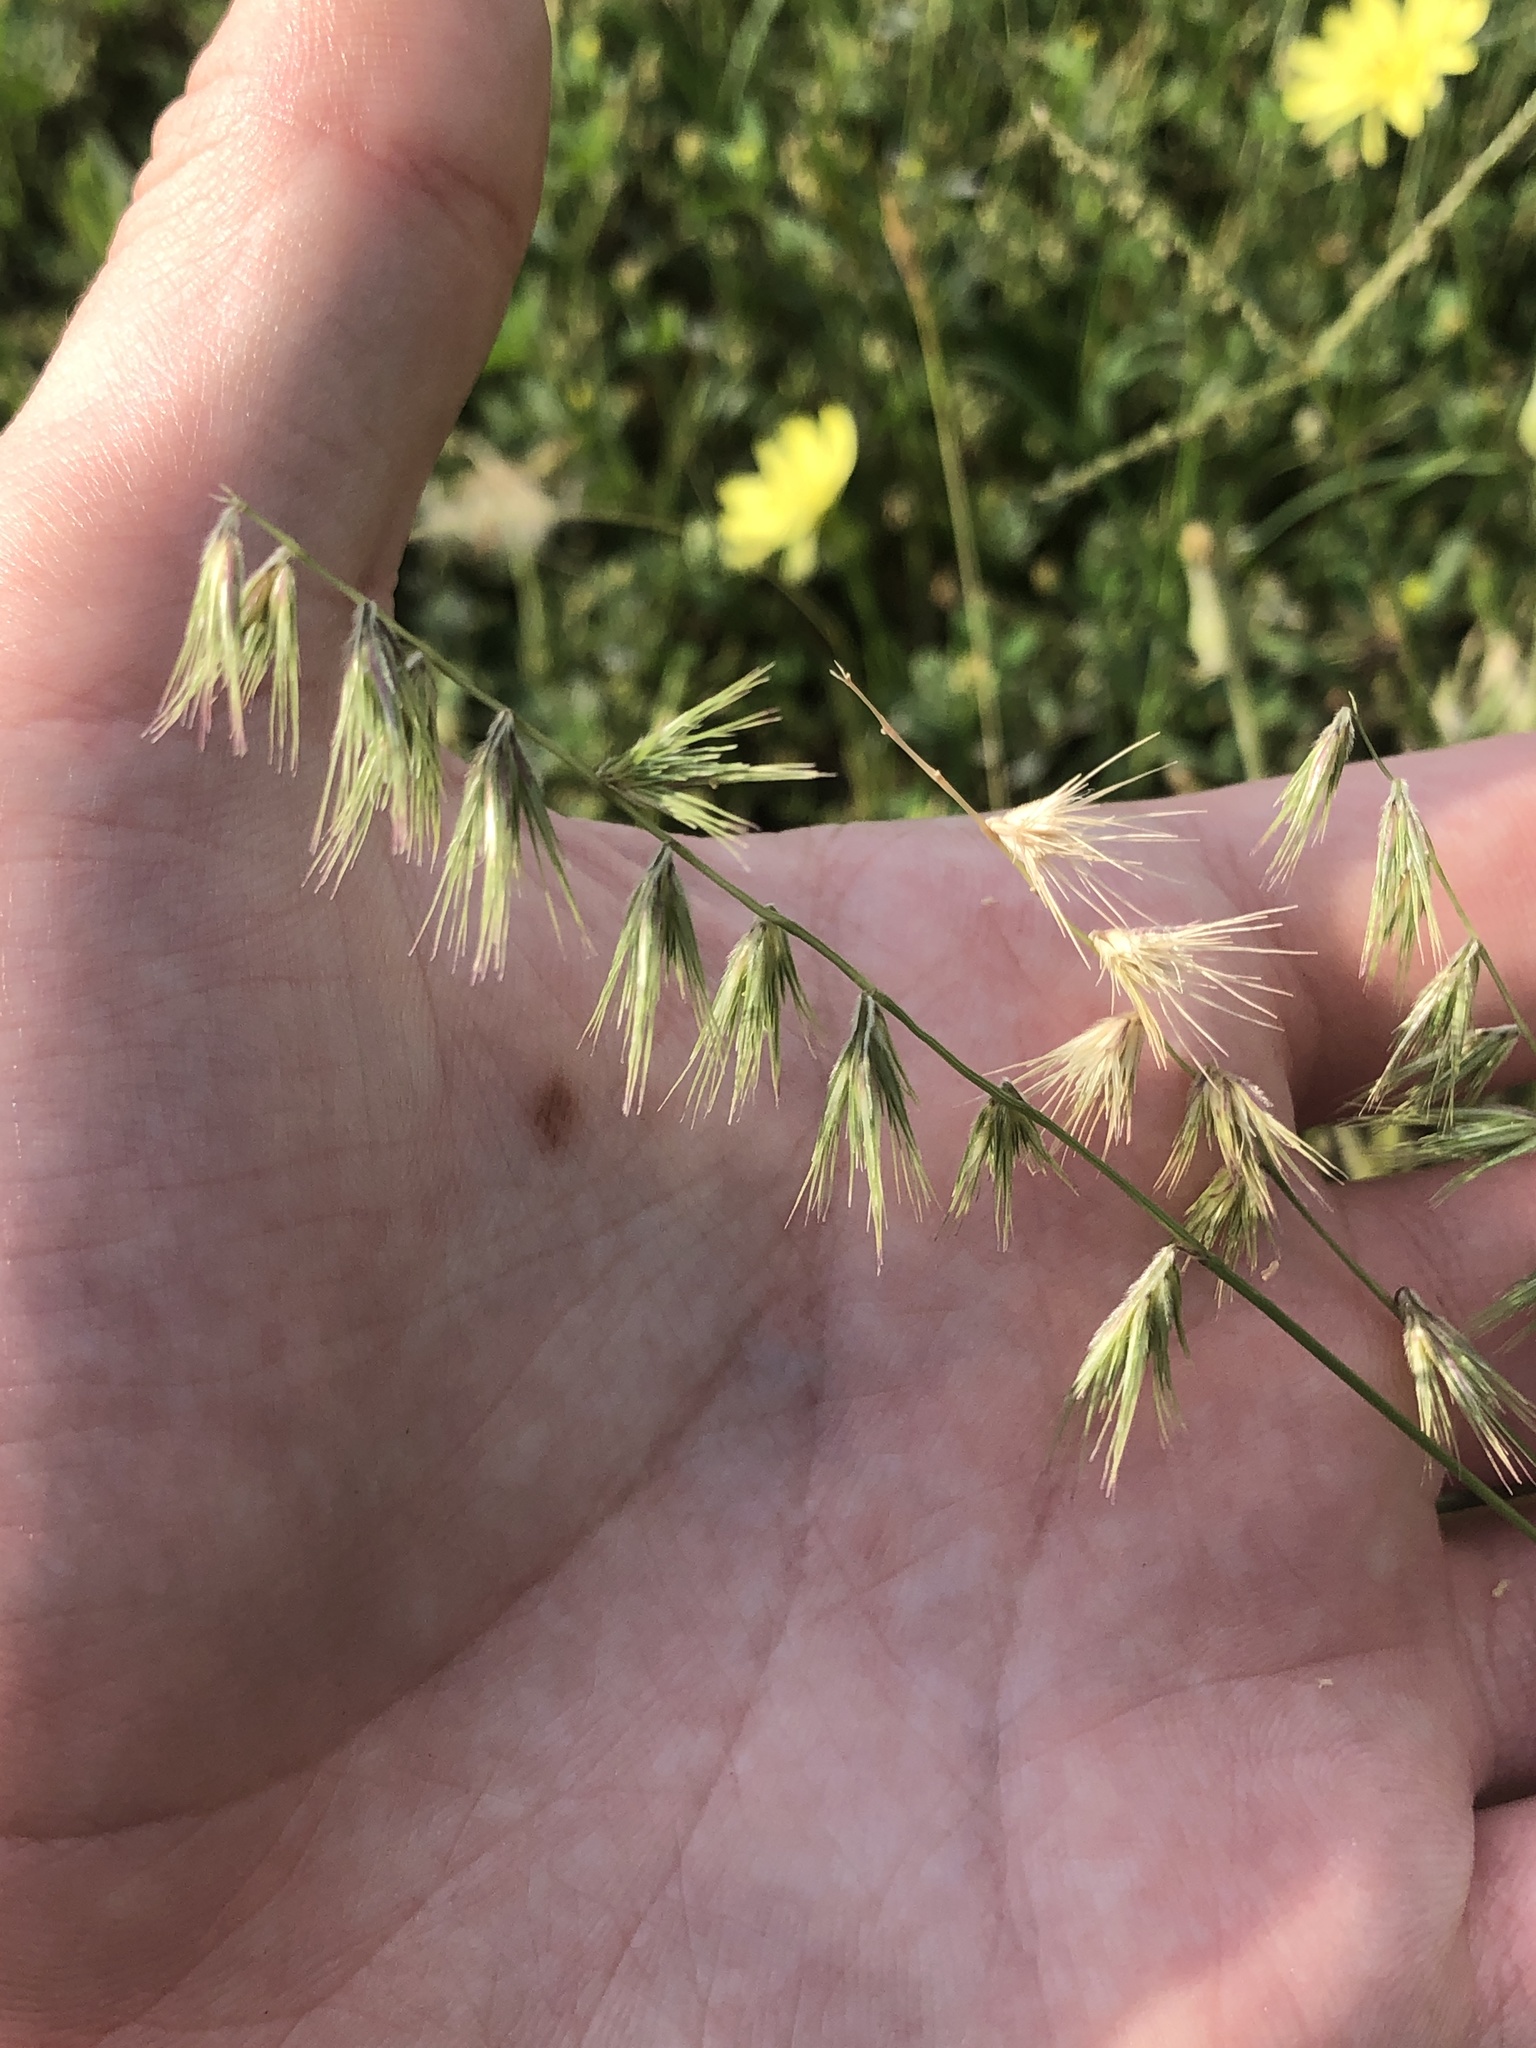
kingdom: Plantae
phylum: Tracheophyta
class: Liliopsida
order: Poales
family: Poaceae
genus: Bouteloua
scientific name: Bouteloua rigidiseta
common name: Texas grama
